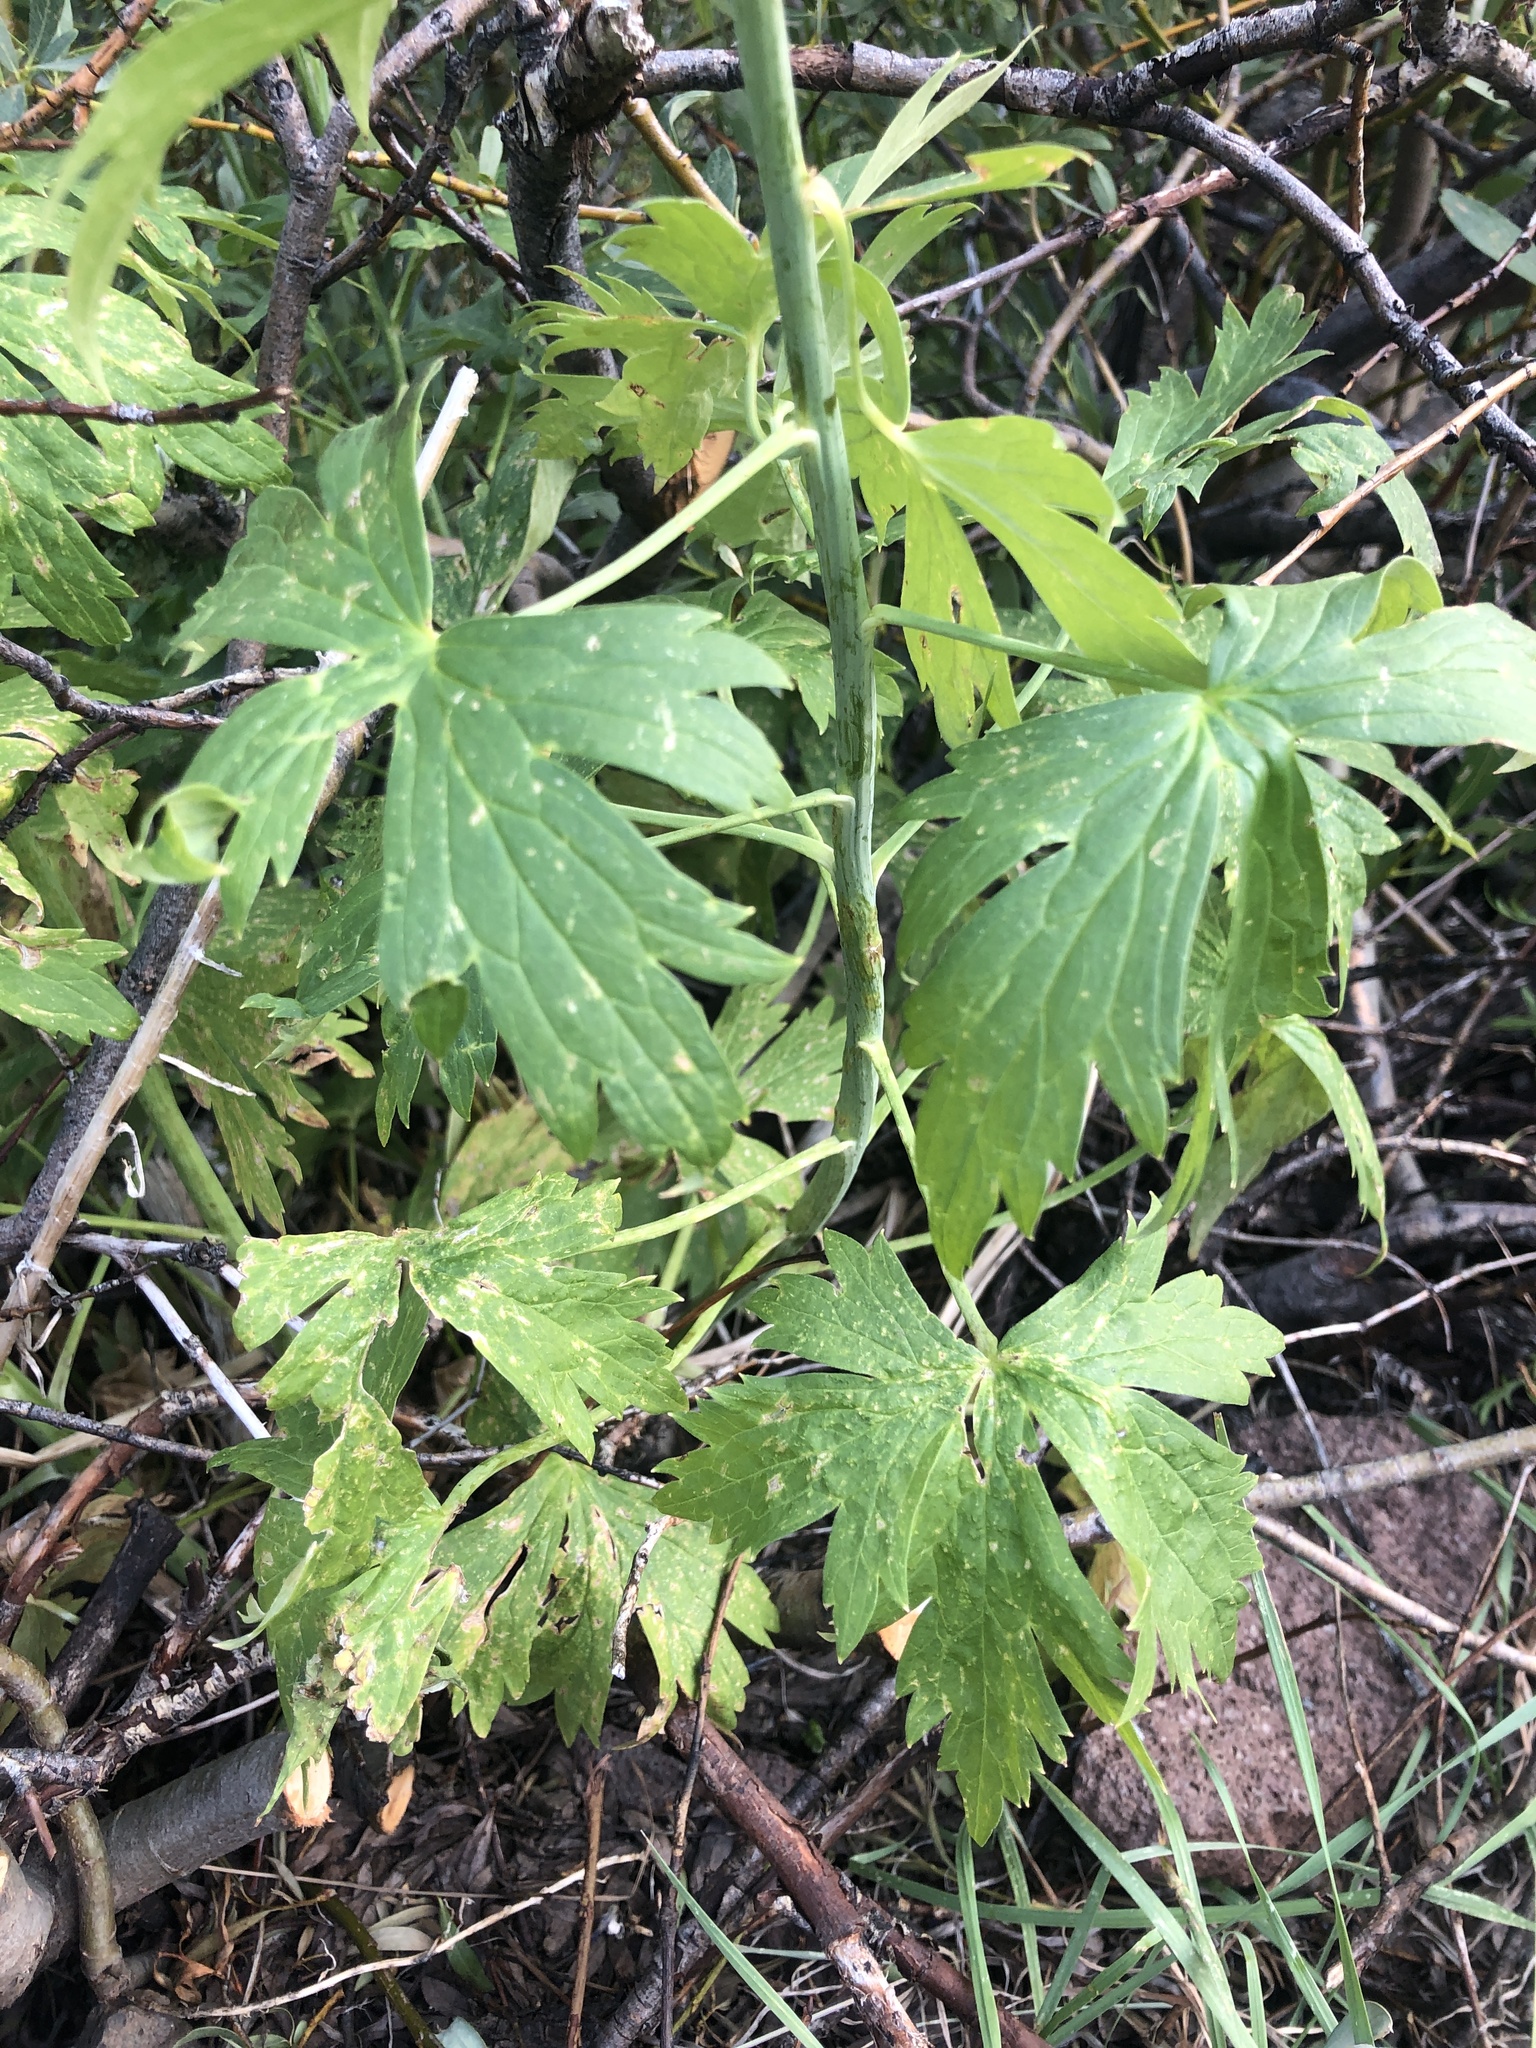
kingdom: Plantae
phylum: Tracheophyta
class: Magnoliopsida
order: Ranunculales
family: Ranunculaceae
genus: Delphinium
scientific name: Delphinium glaucum
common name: Brown's larkspur
